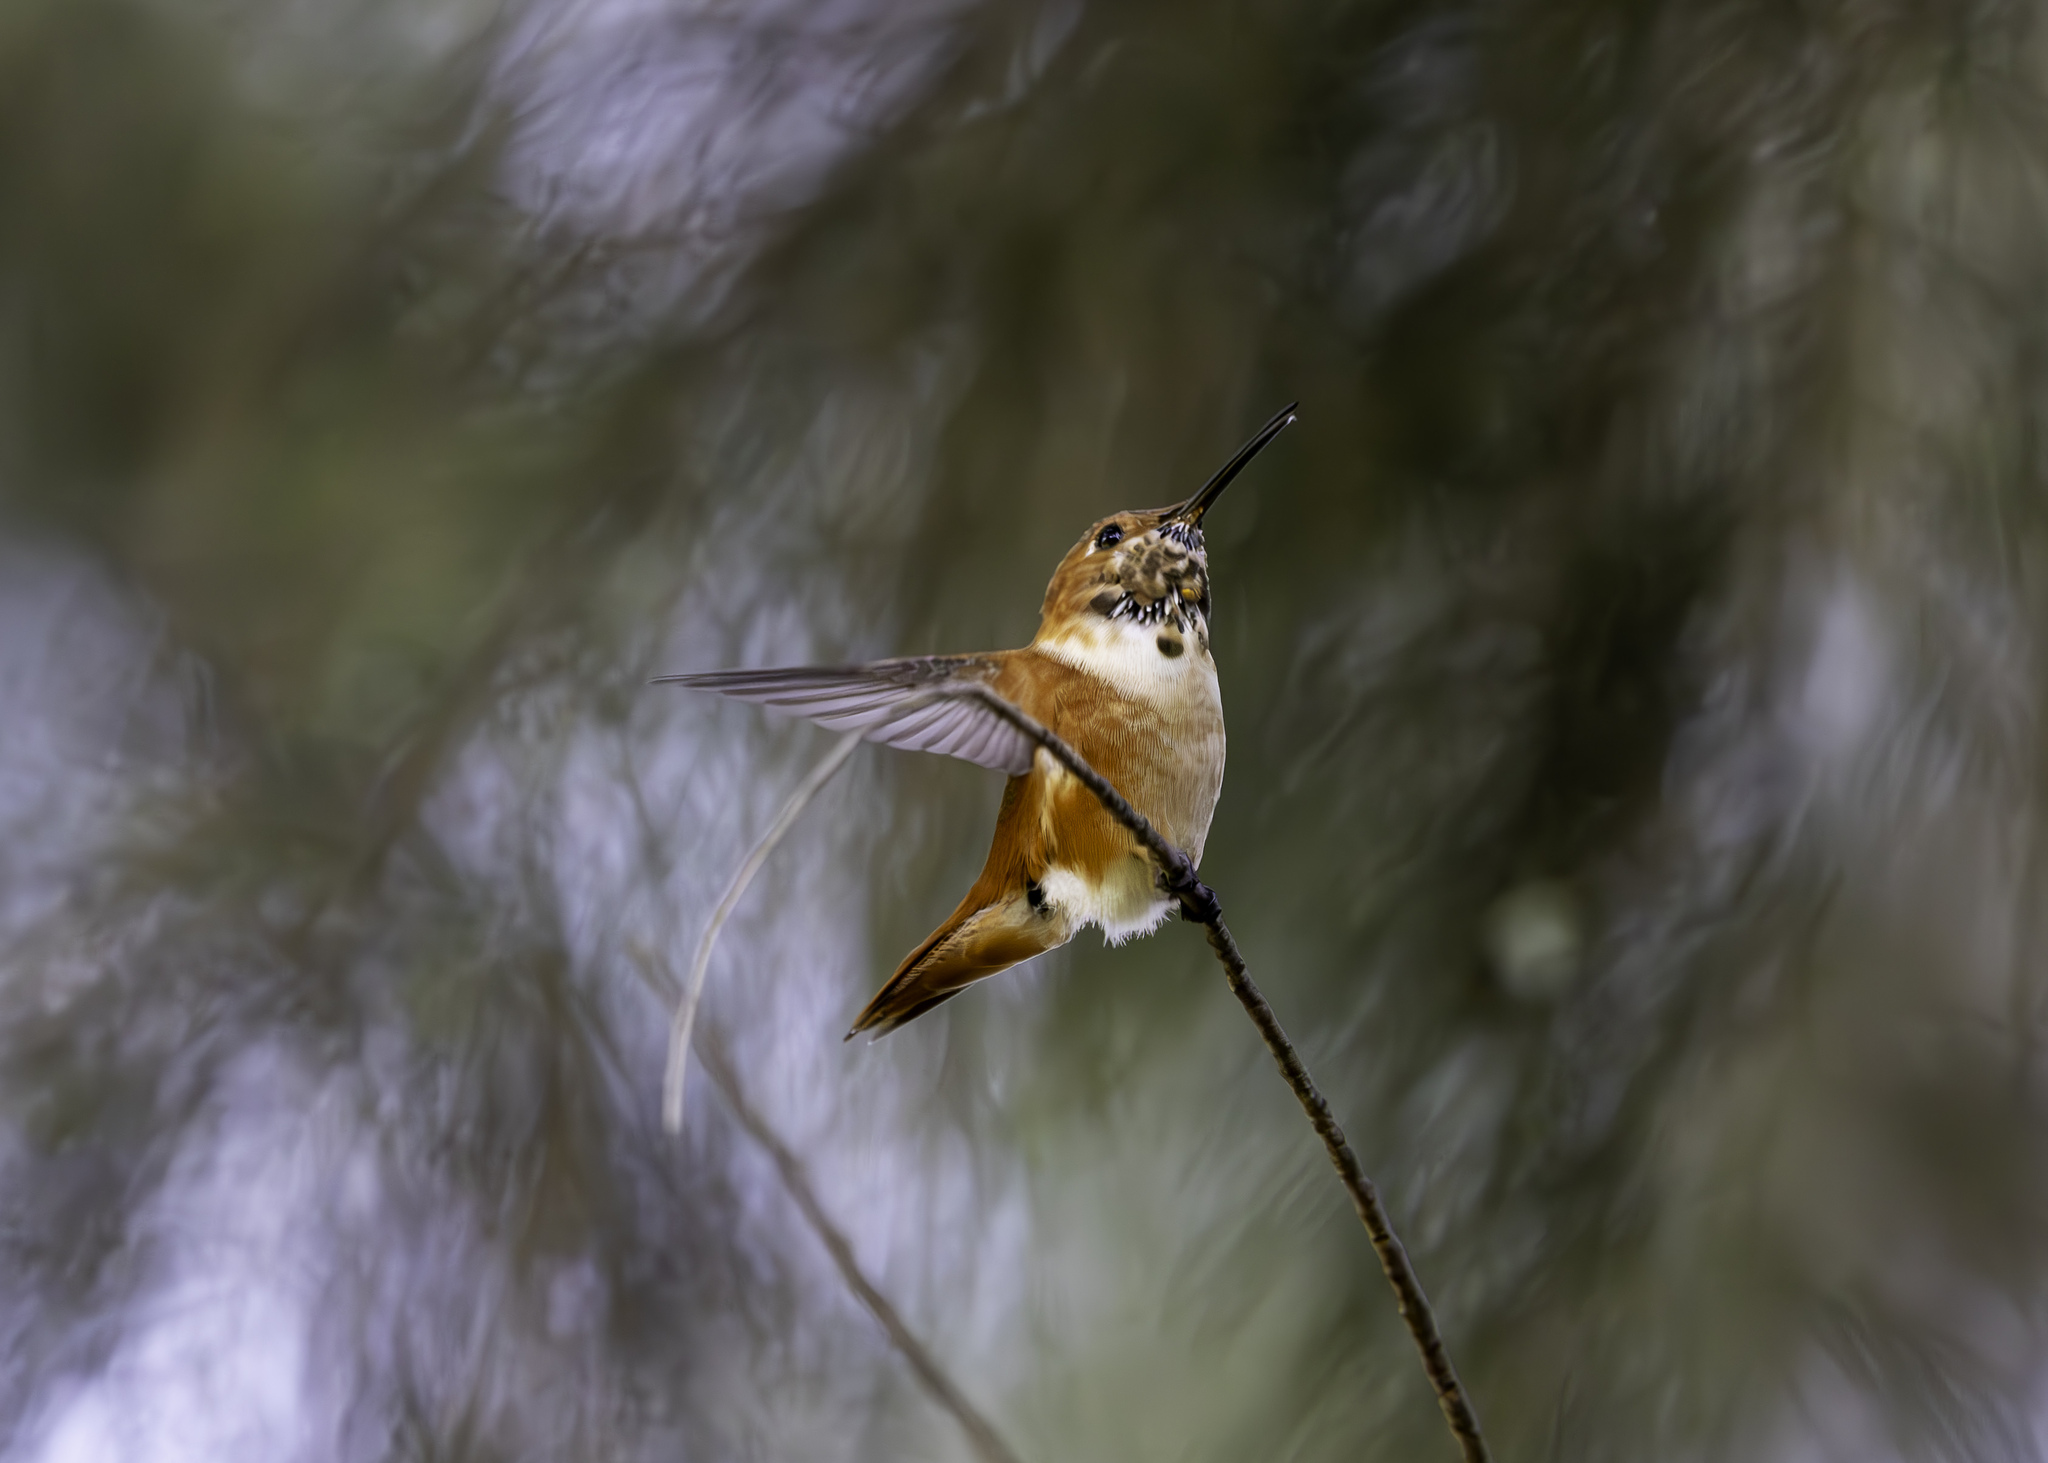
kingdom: Animalia
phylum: Chordata
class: Aves
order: Apodiformes
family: Trochilidae
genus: Selasphorus
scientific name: Selasphorus sasin
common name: Allen's hummingbird
